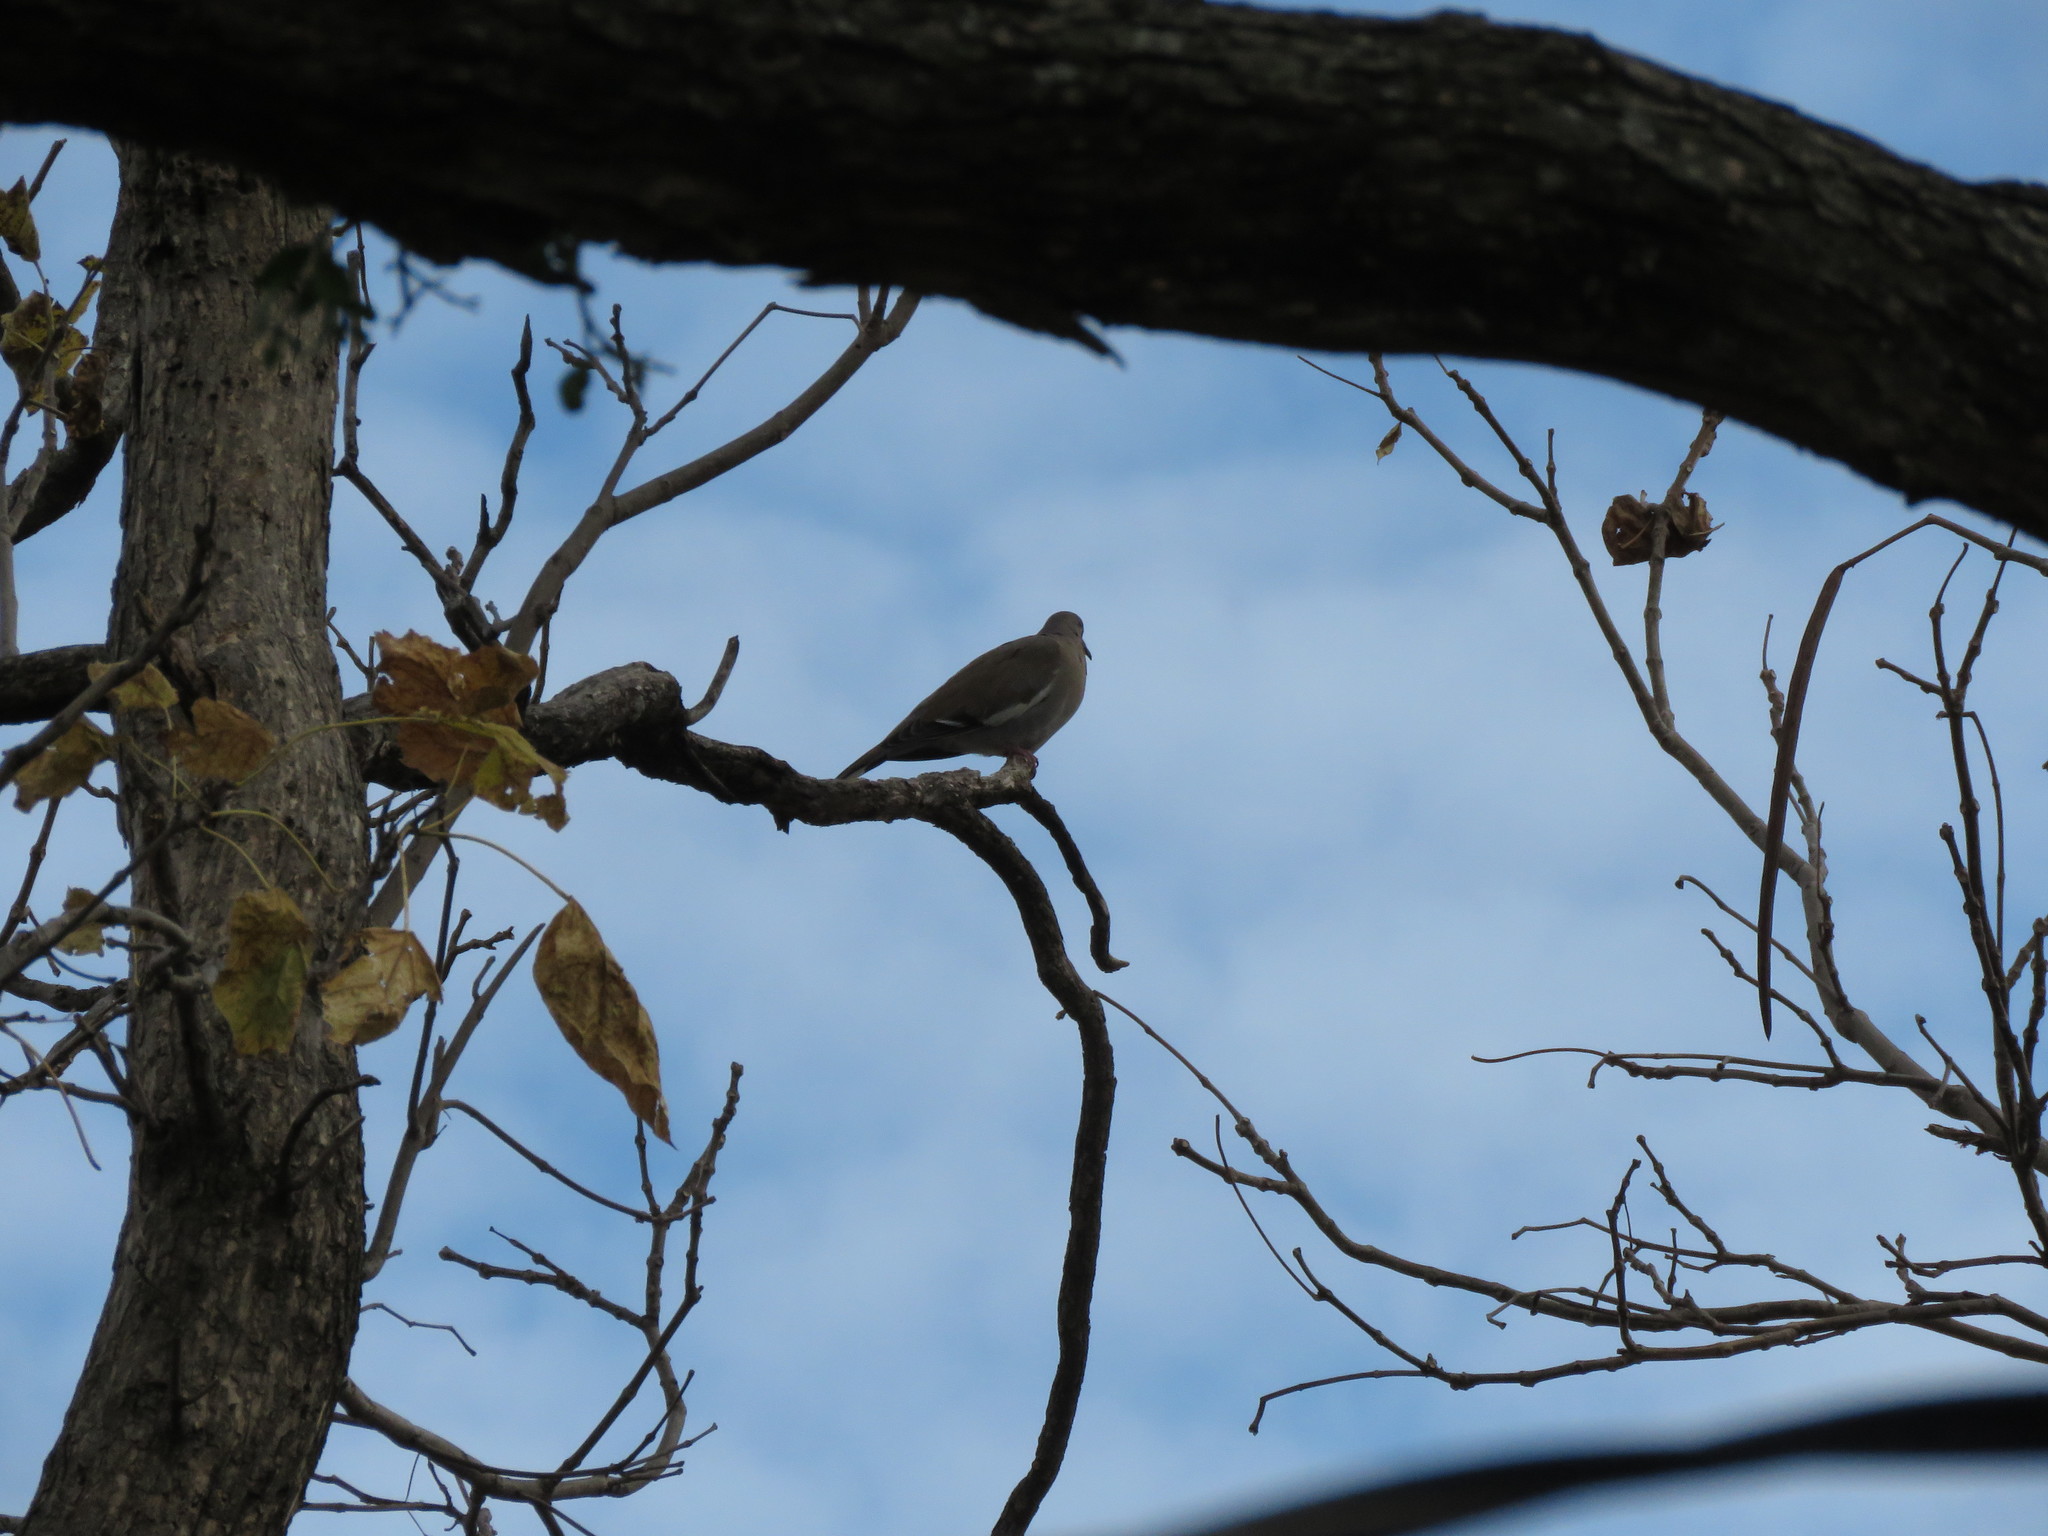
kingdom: Animalia
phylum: Chordata
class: Aves
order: Columbiformes
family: Columbidae
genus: Zenaida
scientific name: Zenaida asiatica
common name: White-winged dove
